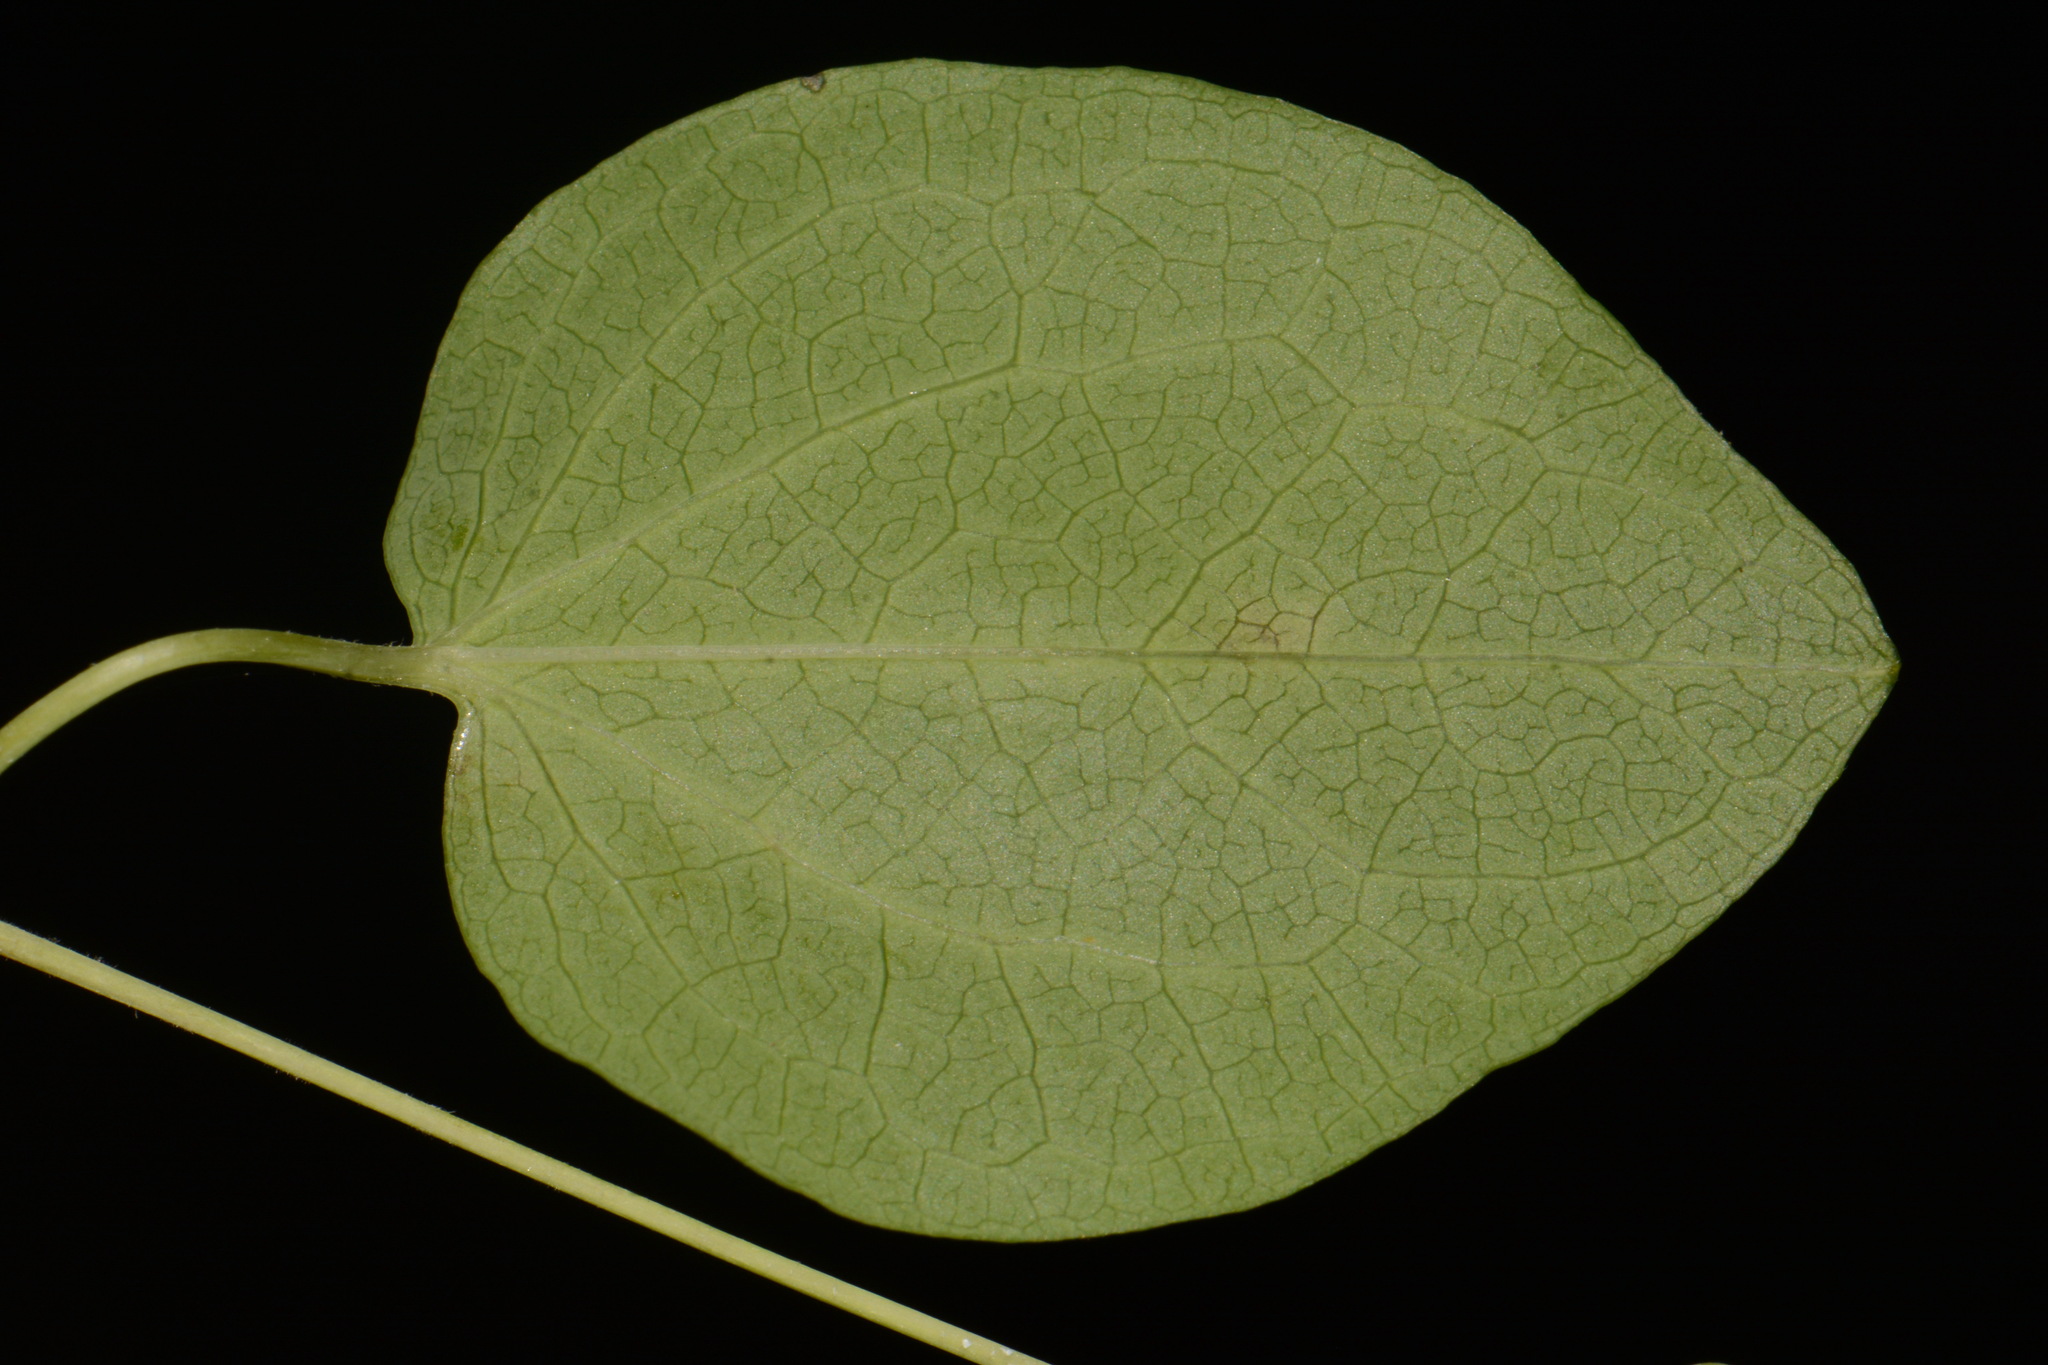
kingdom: Plantae
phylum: Tracheophyta
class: Magnoliopsida
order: Ranunculales
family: Ranunculaceae
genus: Clematis
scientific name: Clematis versicolor
